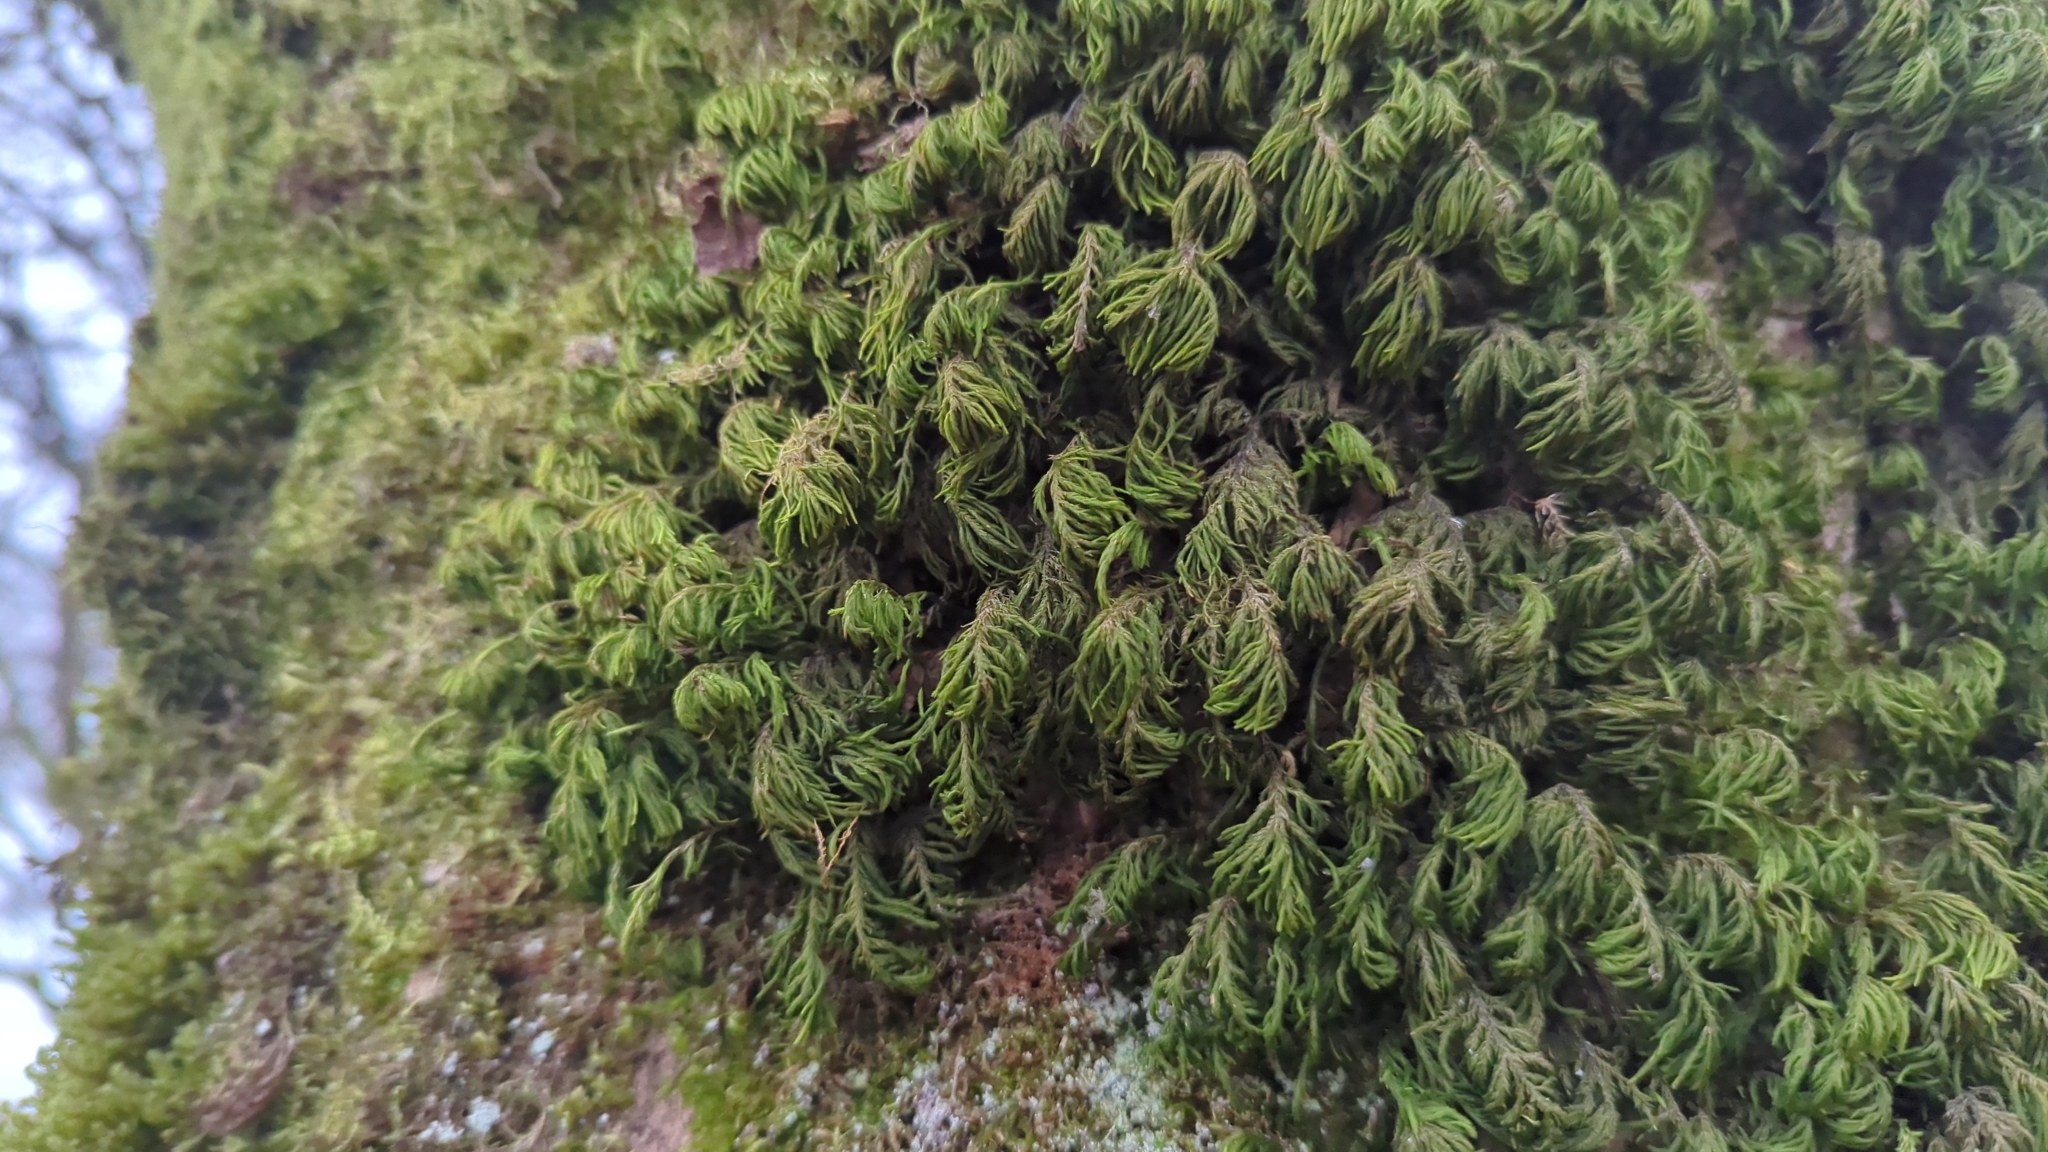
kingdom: Plantae
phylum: Bryophyta
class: Bryopsida
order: Hypnales
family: Cryphaeaceae
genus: Dendroalsia
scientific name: Dendroalsia abietina
